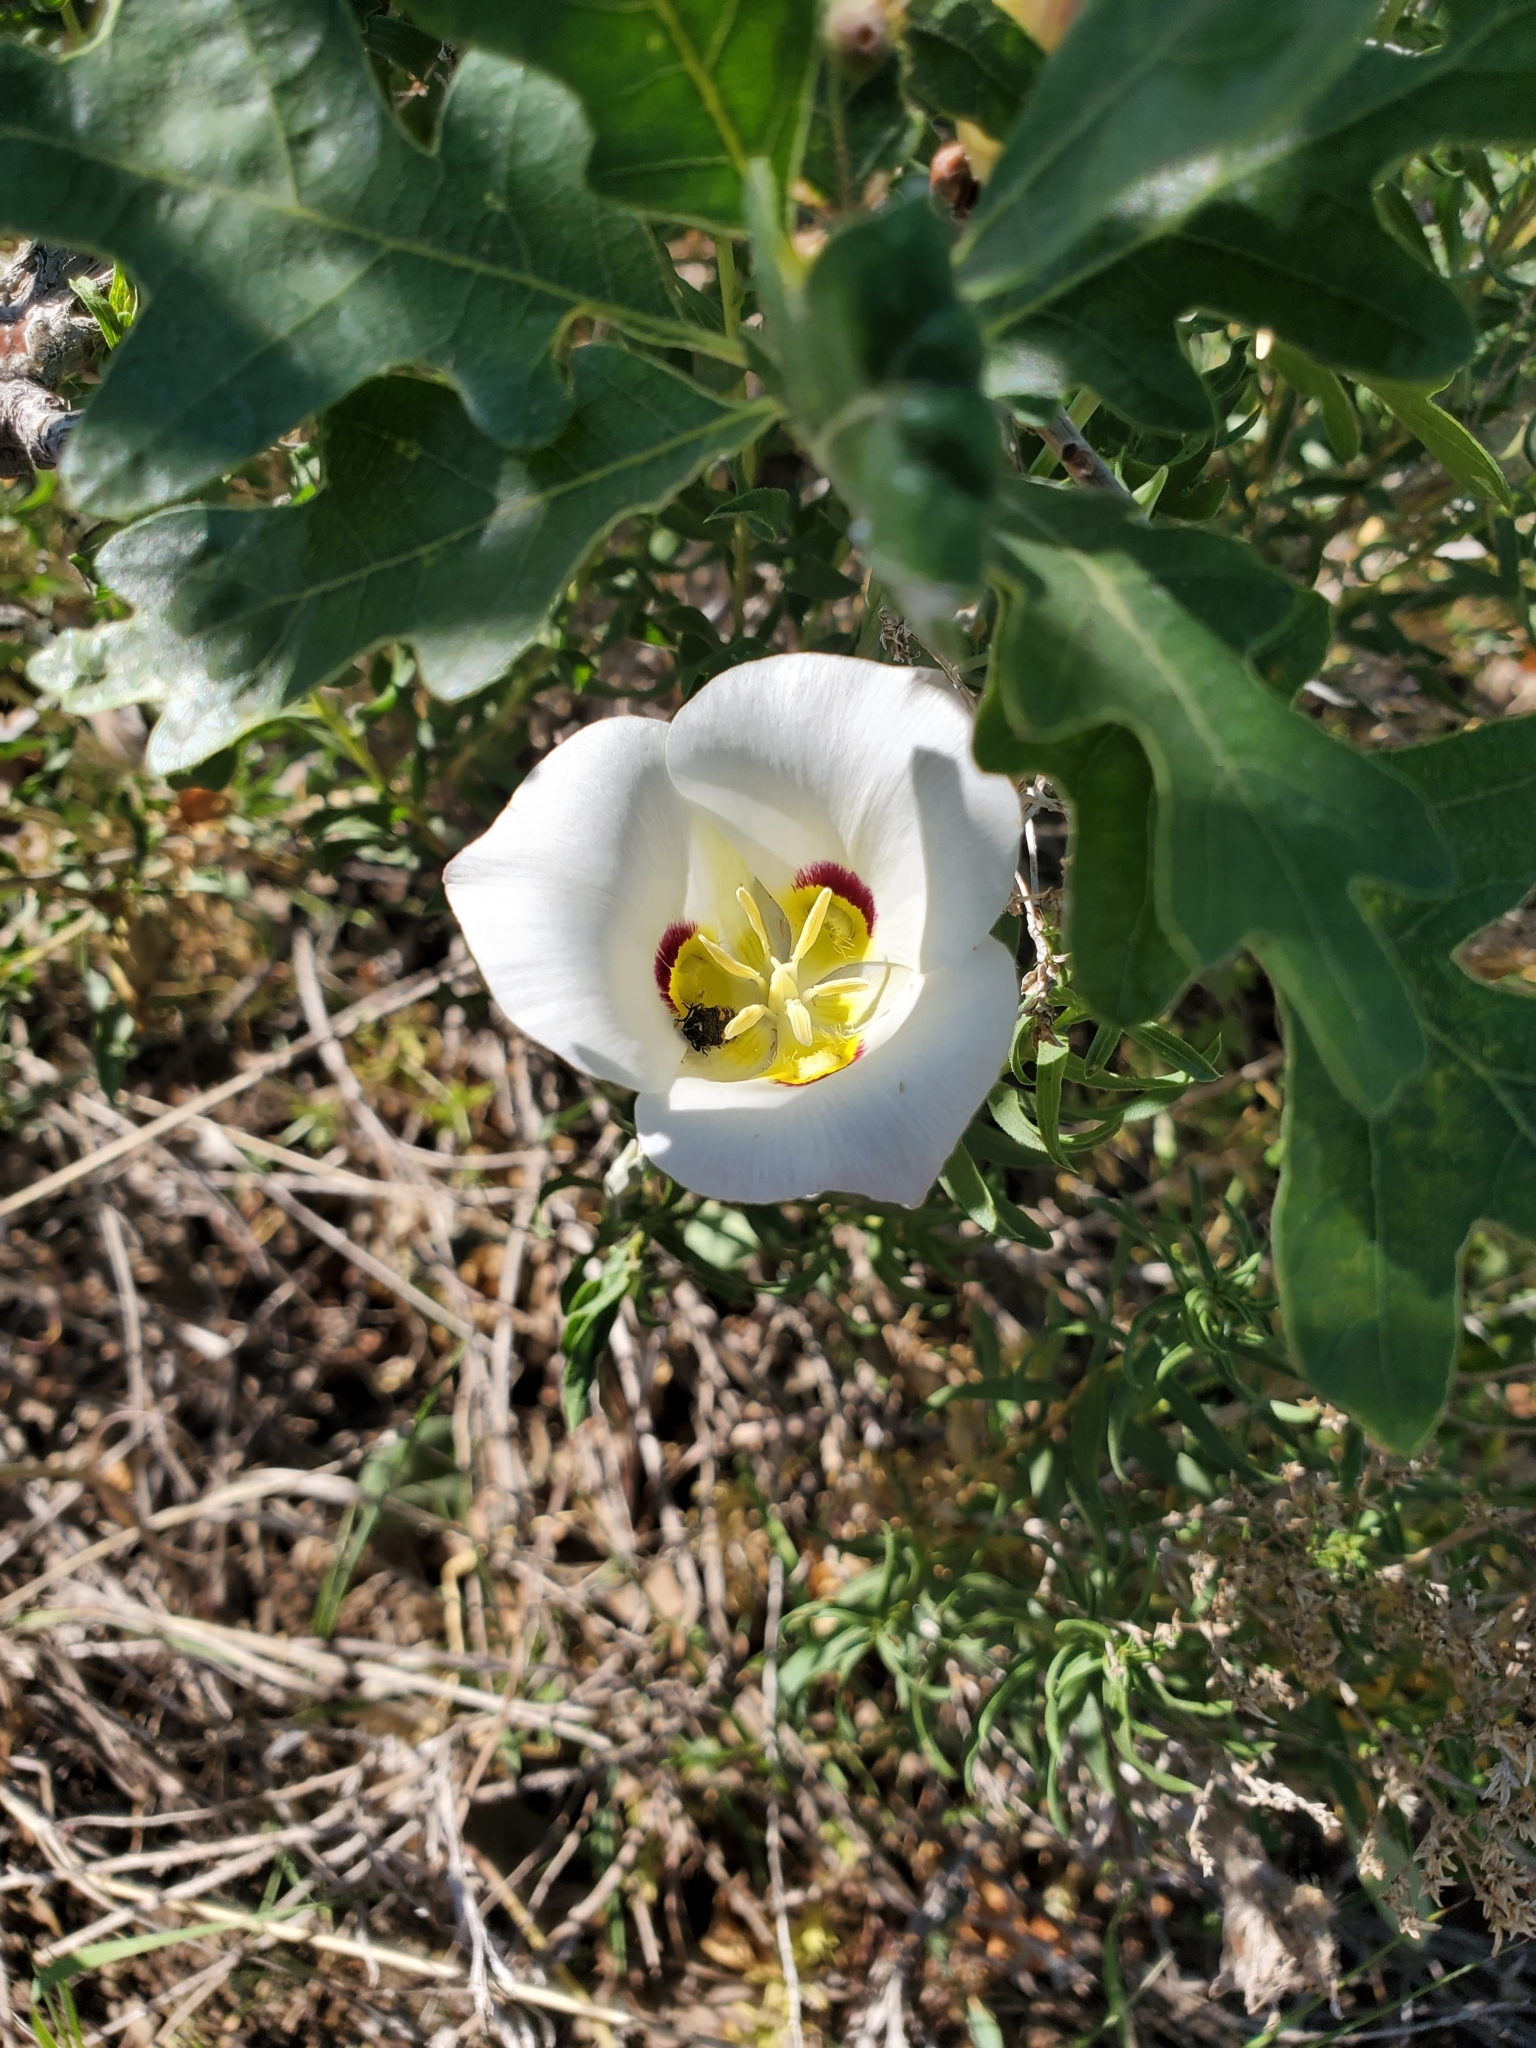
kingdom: Plantae
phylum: Tracheophyta
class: Liliopsida
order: Liliales
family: Liliaceae
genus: Calochortus
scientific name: Calochortus nuttallii
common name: Sego-lily
